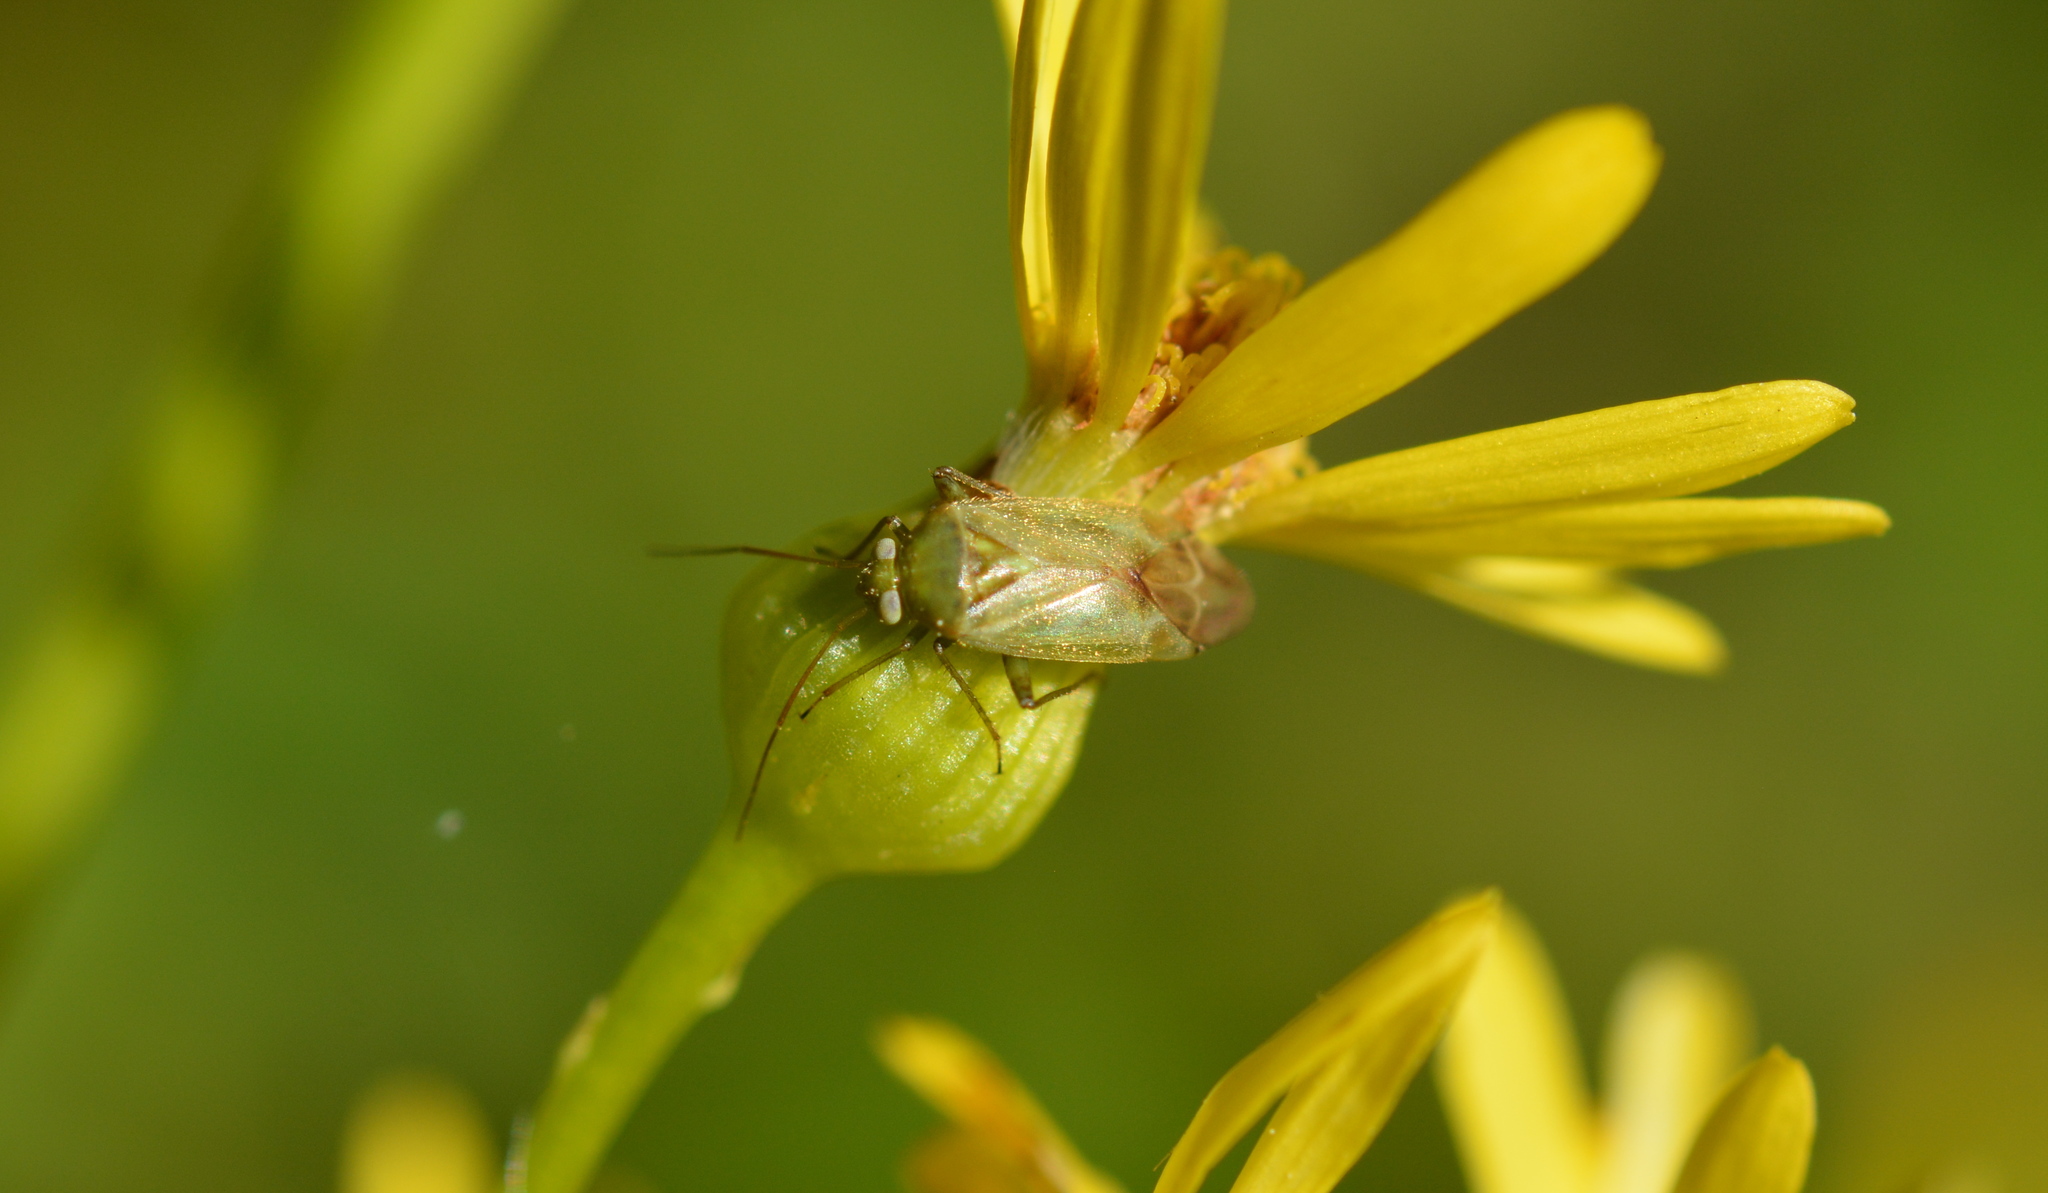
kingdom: Animalia
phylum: Arthropoda
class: Insecta
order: Hemiptera
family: Miridae
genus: Taylorilygus
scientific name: Taylorilygus apicalis
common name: Plant bug
